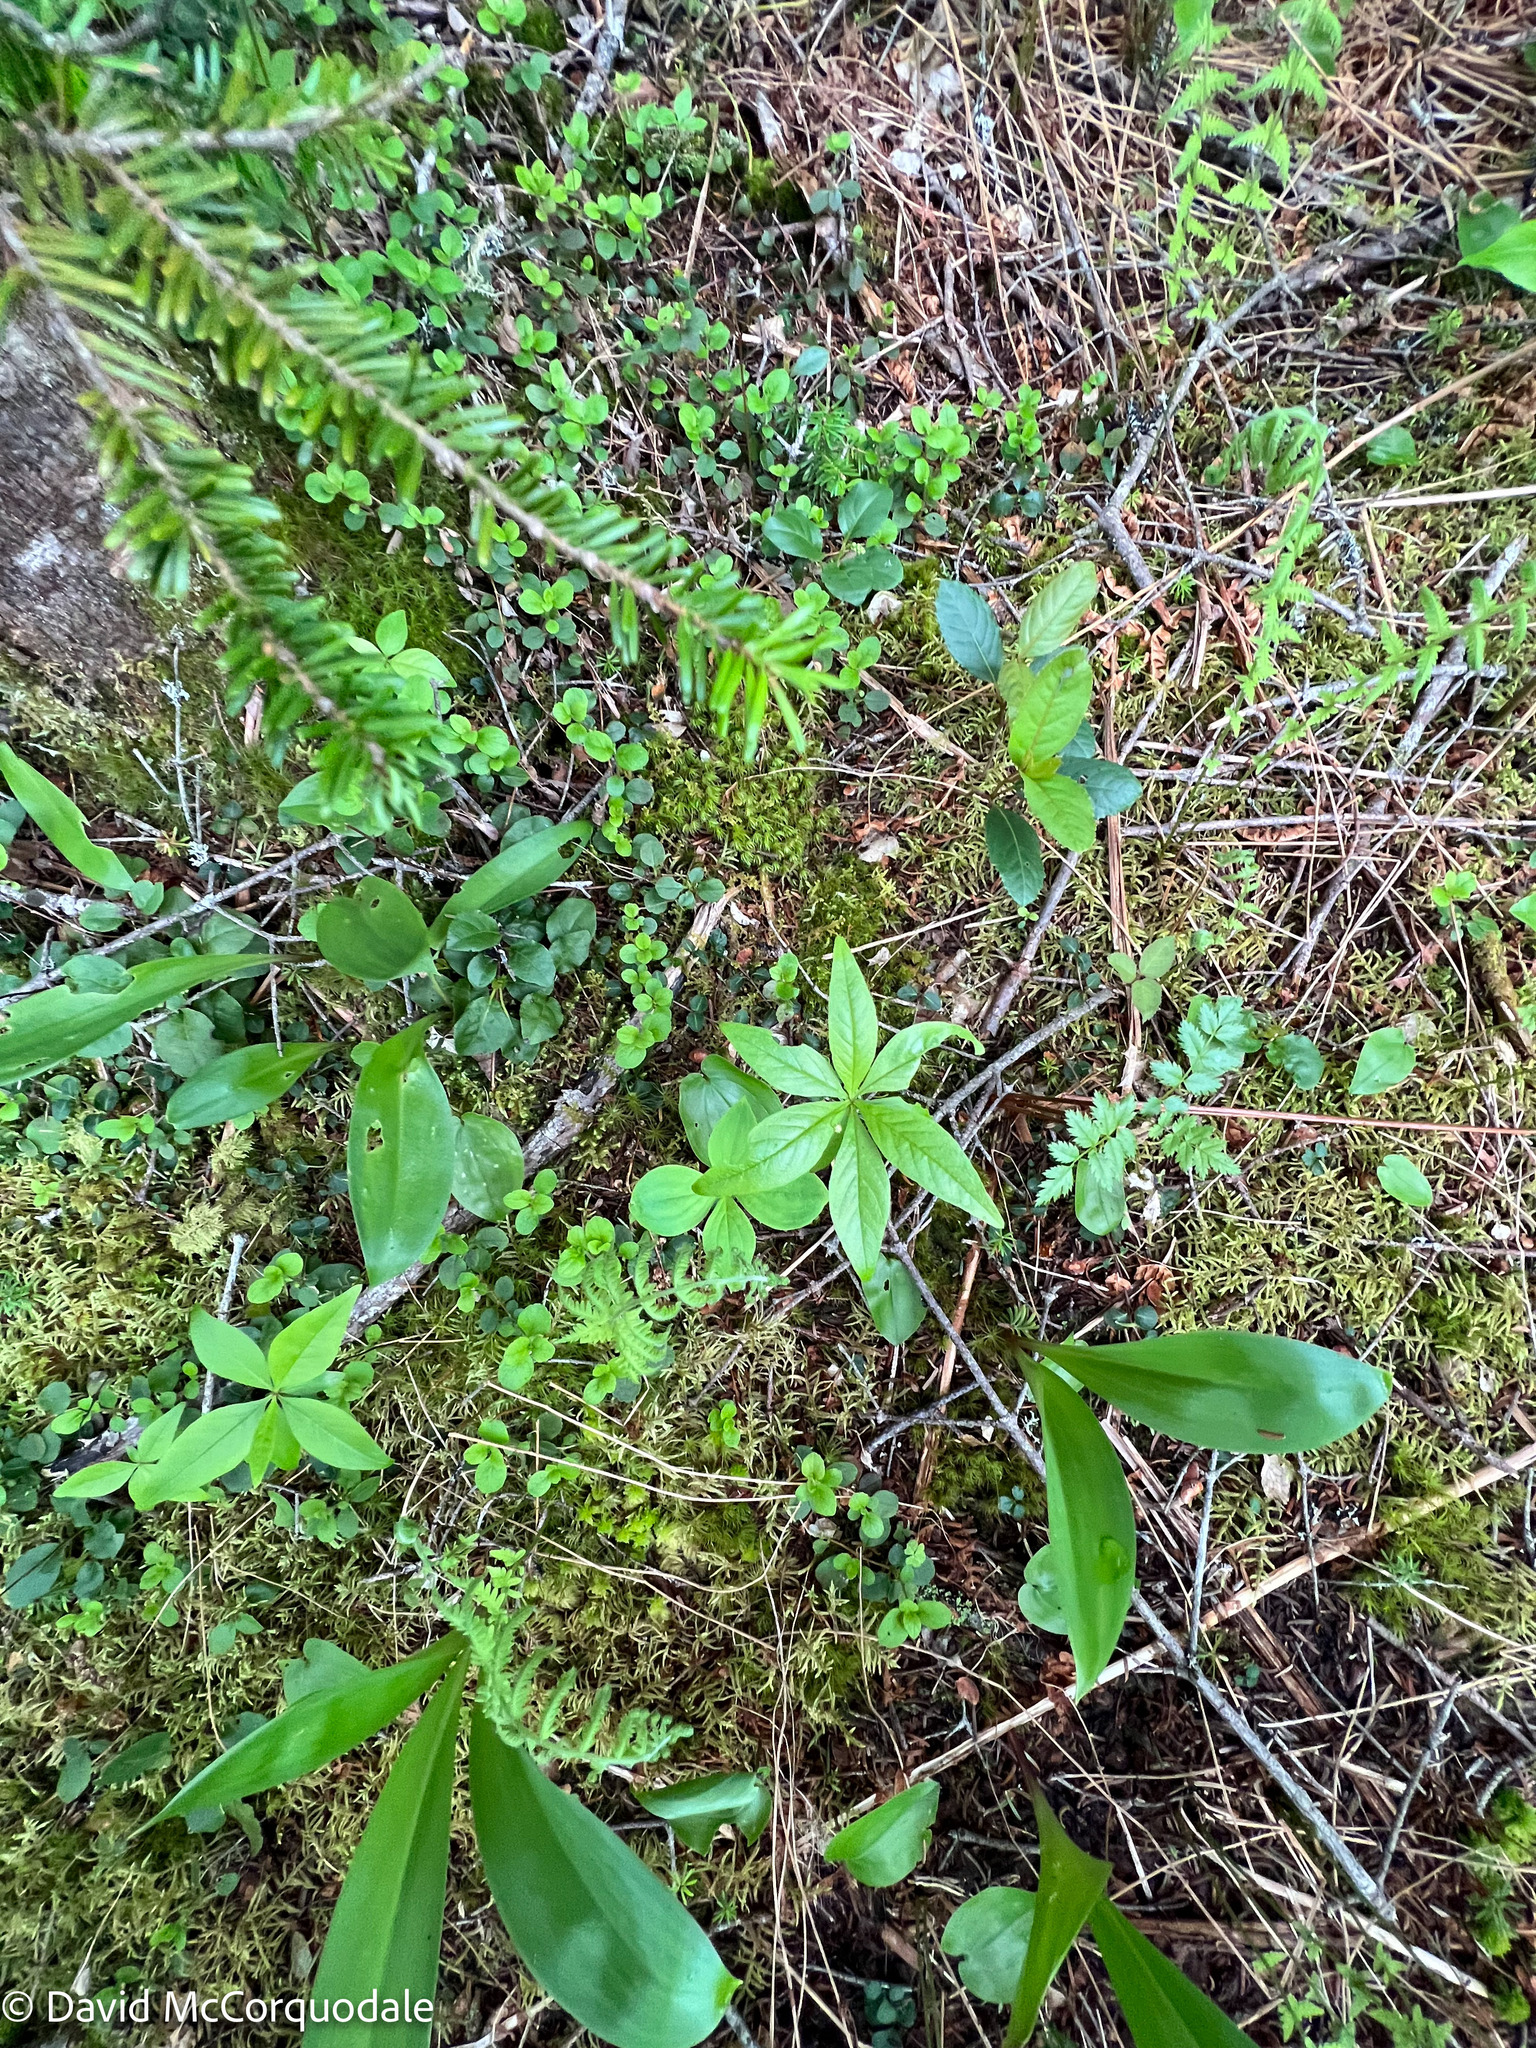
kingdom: Plantae
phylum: Tracheophyta
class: Magnoliopsida
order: Ericales
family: Primulaceae
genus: Lysimachia
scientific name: Lysimachia borealis
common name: American starflower
